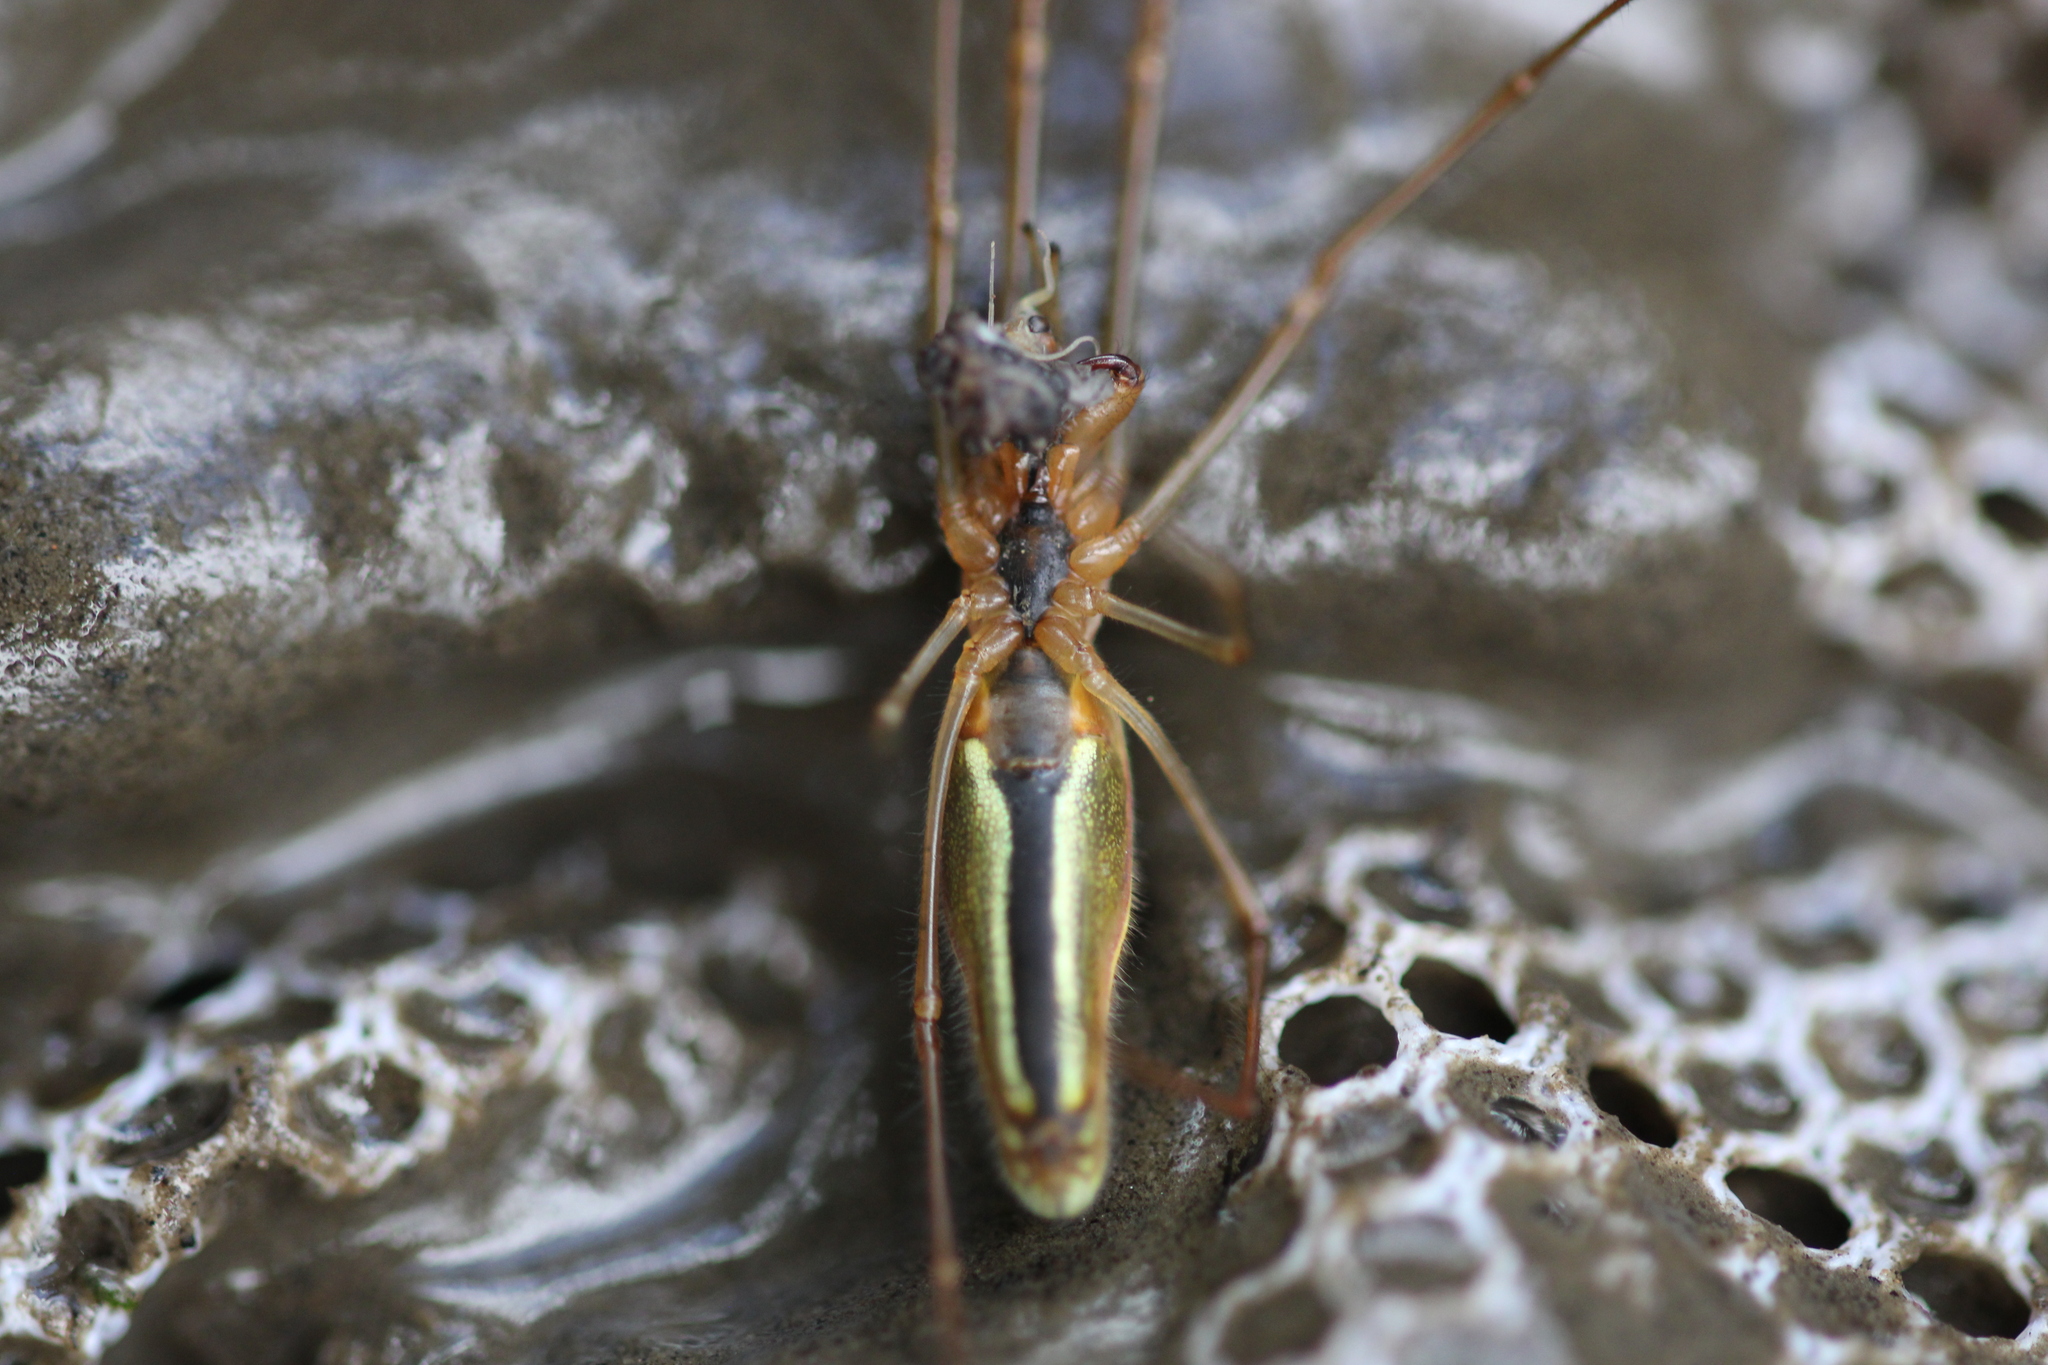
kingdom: Animalia
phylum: Arthropoda
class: Arachnida
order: Araneae
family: Tetragnathidae
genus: Tetragnatha
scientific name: Tetragnatha
